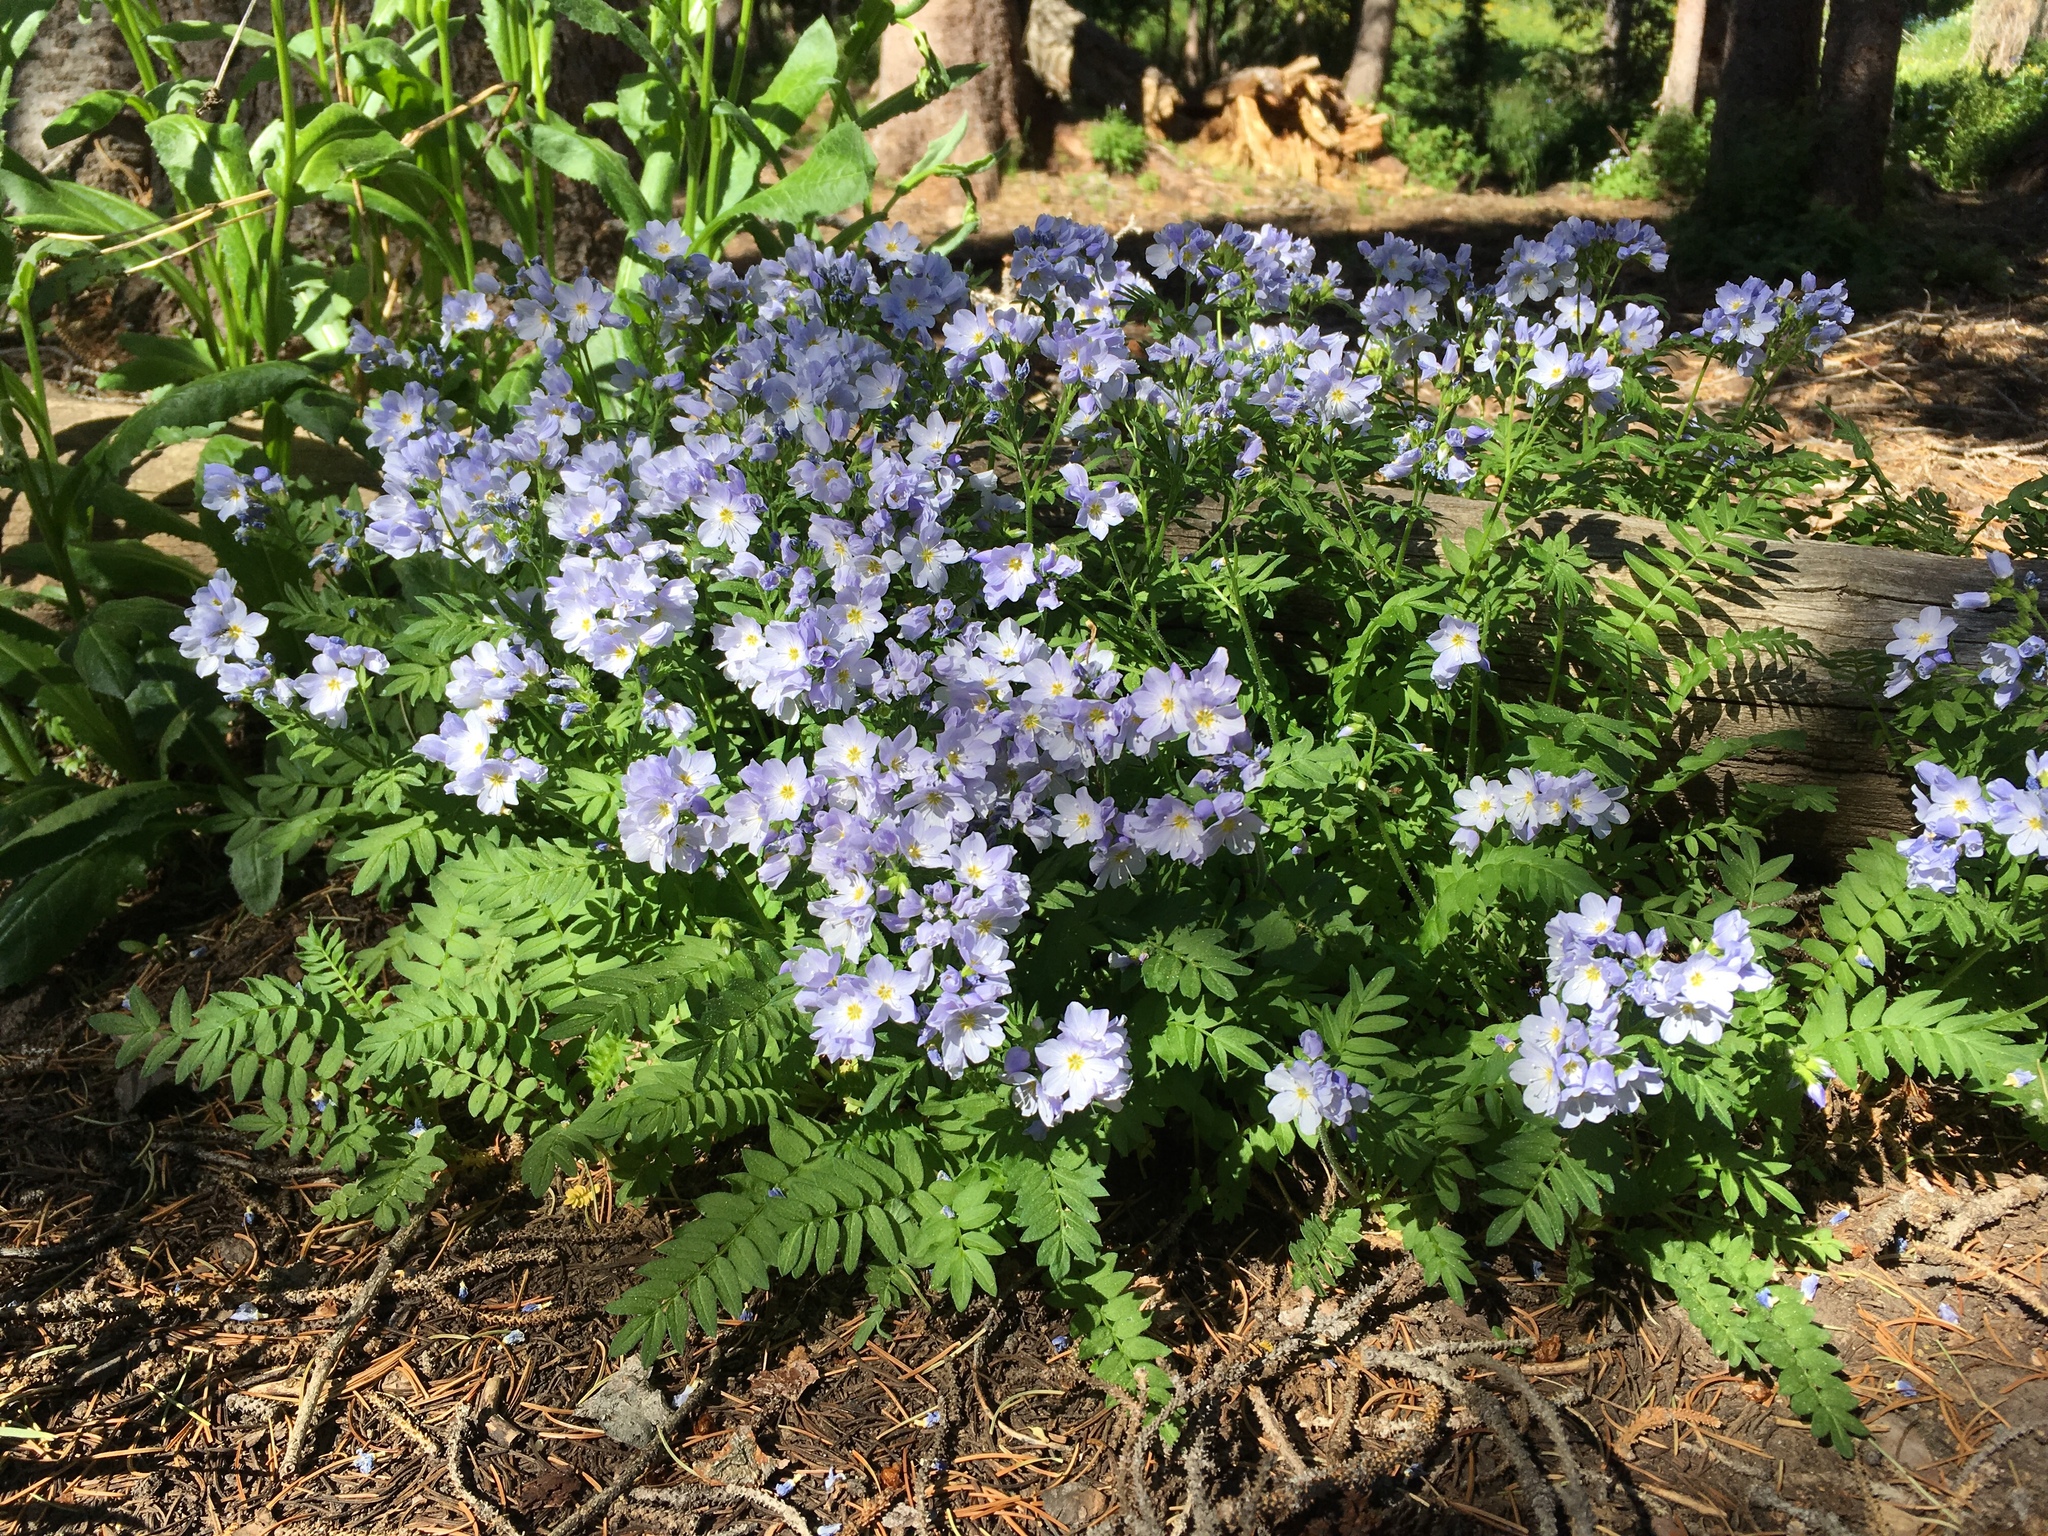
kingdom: Plantae
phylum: Tracheophyta
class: Magnoliopsida
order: Ericales
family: Polemoniaceae
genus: Polemonium
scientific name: Polemonium pulcherrimum
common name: Short jacob's-ladder
